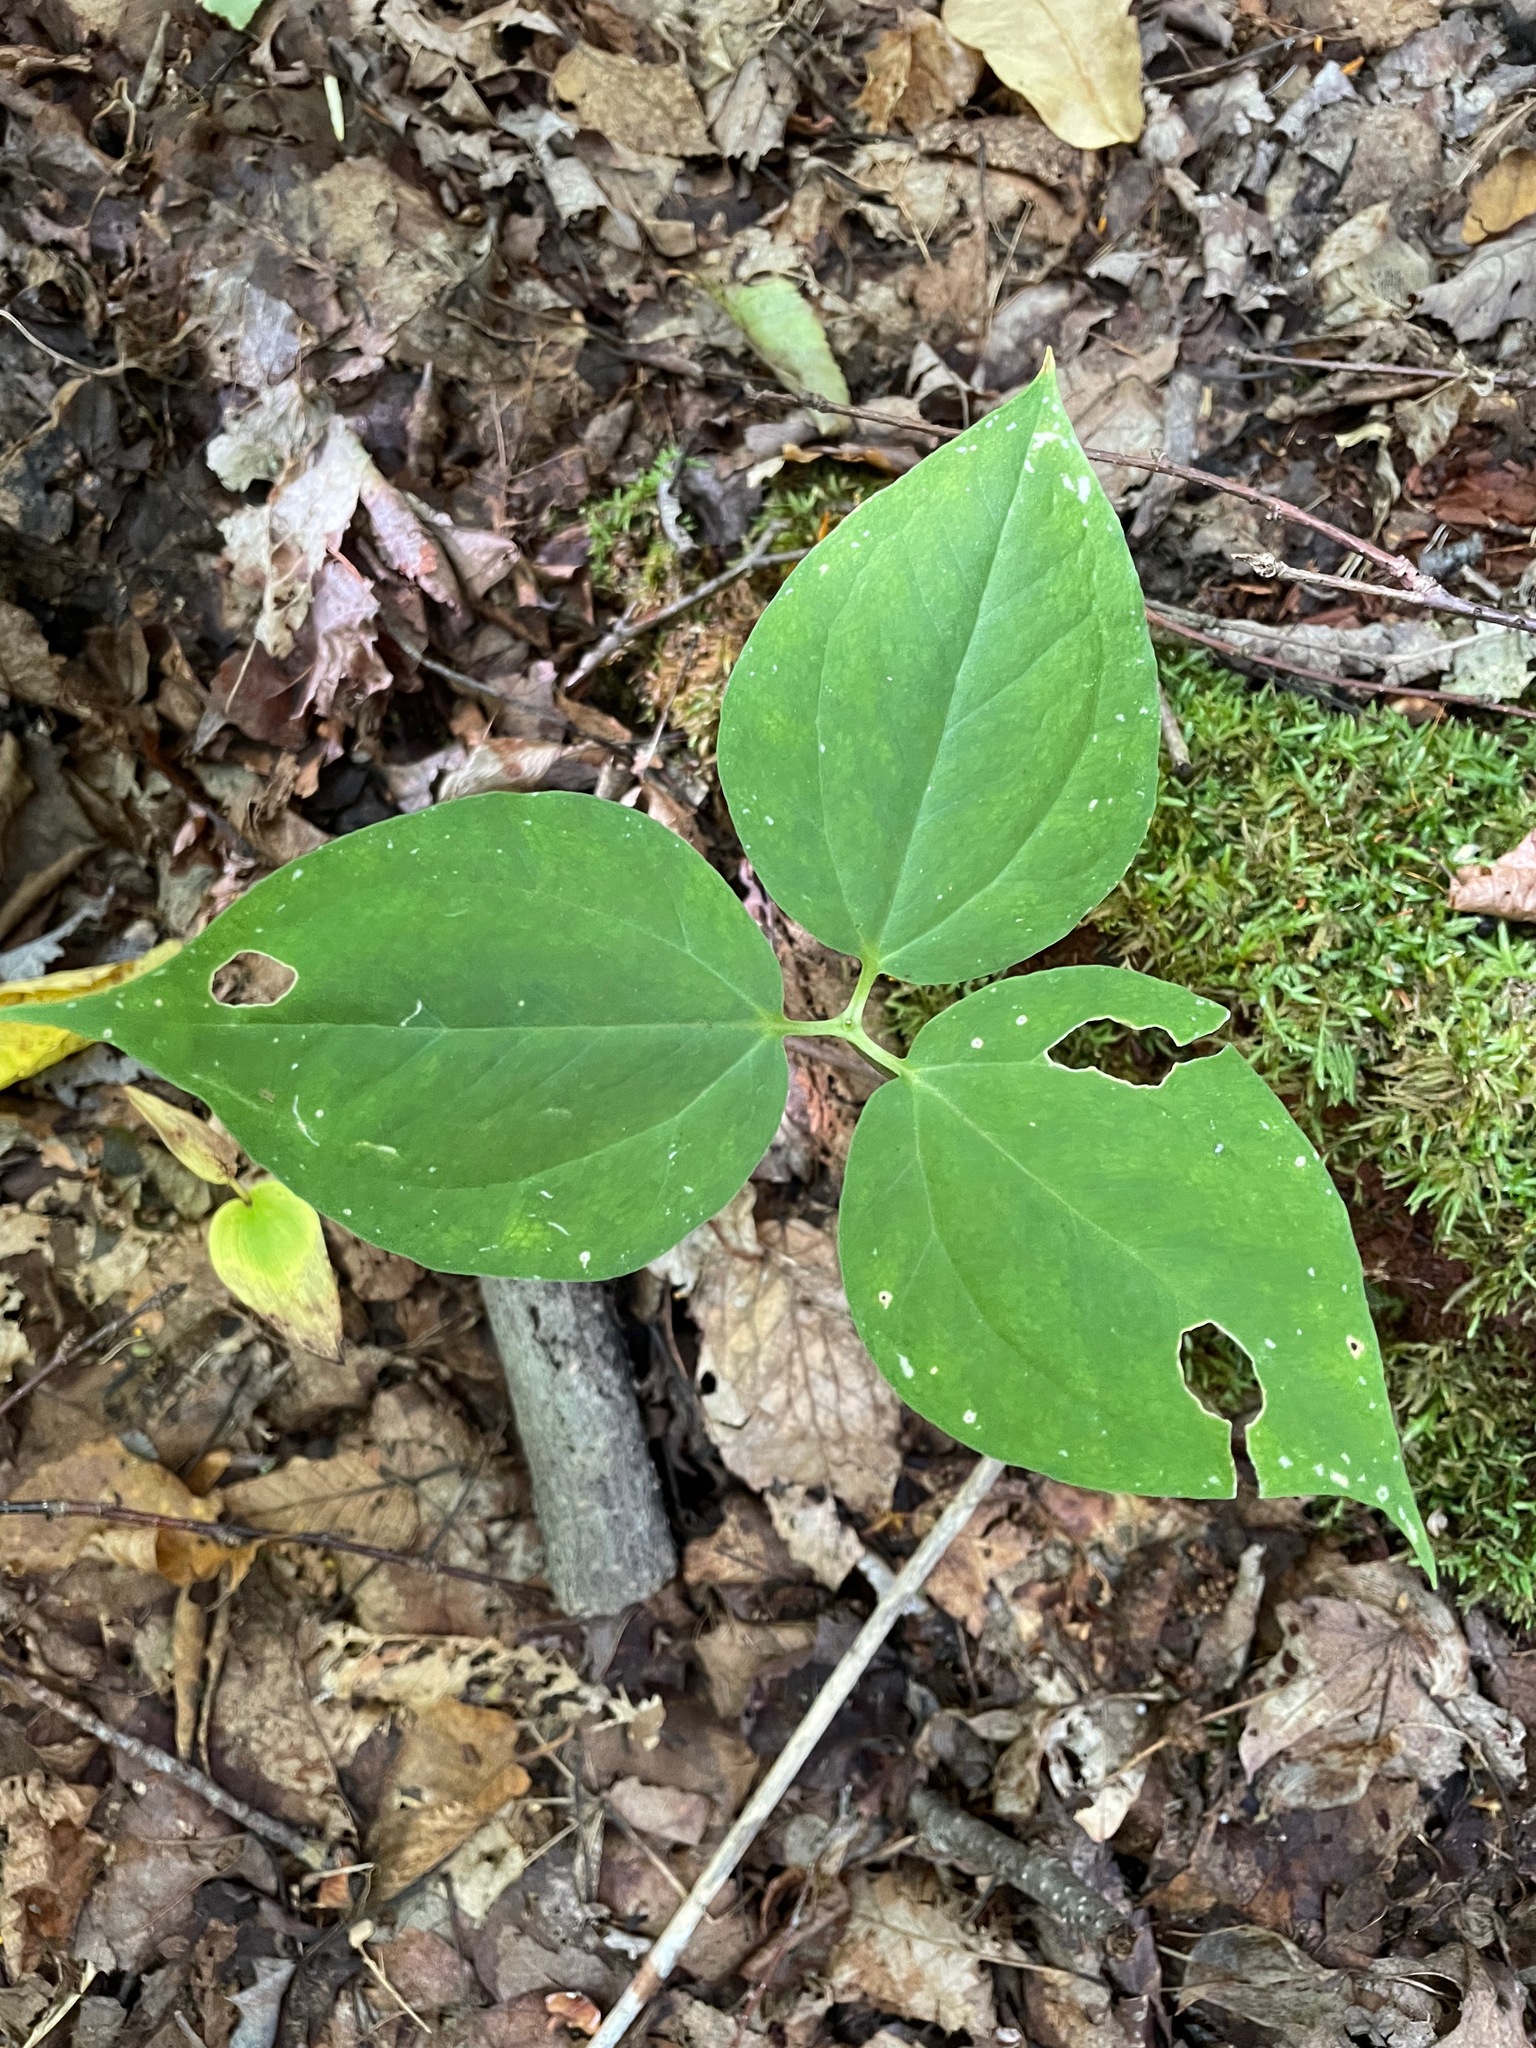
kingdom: Plantae
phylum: Tracheophyta
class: Liliopsida
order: Liliales
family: Melanthiaceae
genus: Trillium
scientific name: Trillium undulatum
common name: Paint trillium
